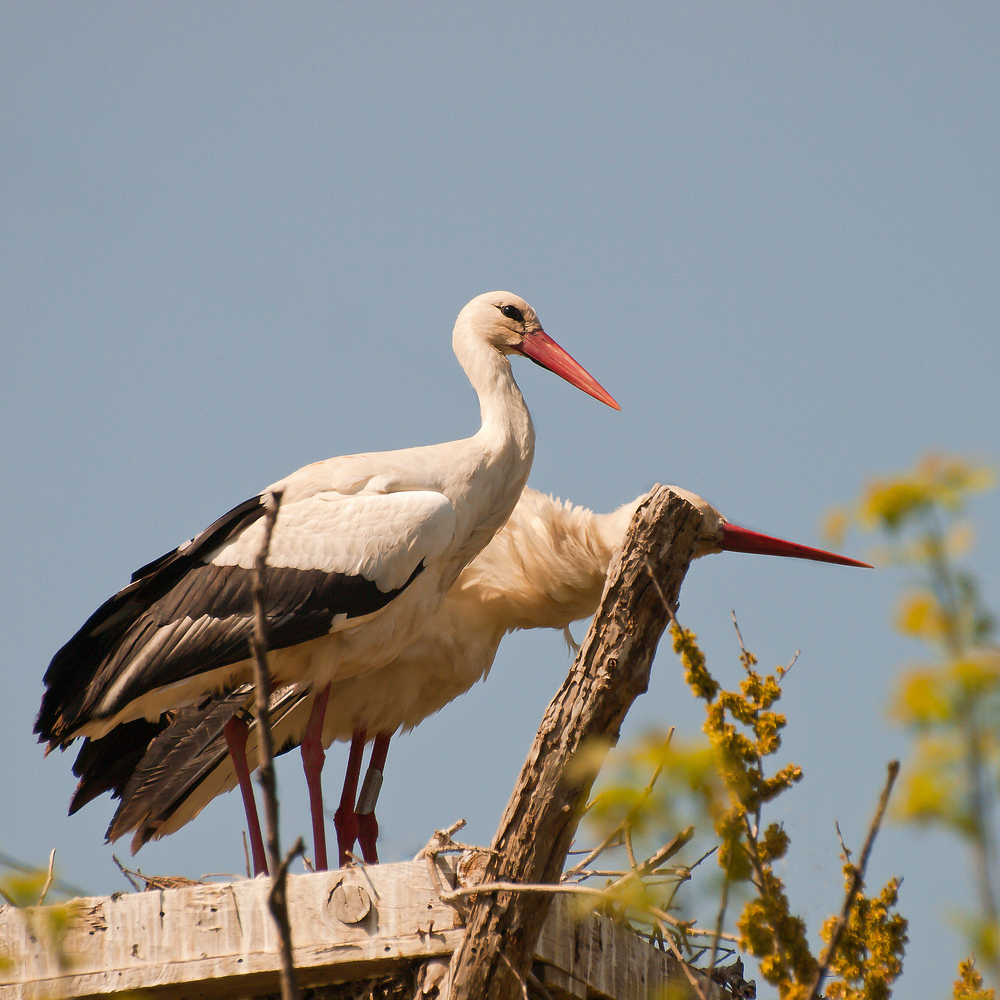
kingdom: Animalia
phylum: Chordata
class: Aves
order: Ciconiiformes
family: Ciconiidae
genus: Ciconia
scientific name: Ciconia ciconia
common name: White stork
